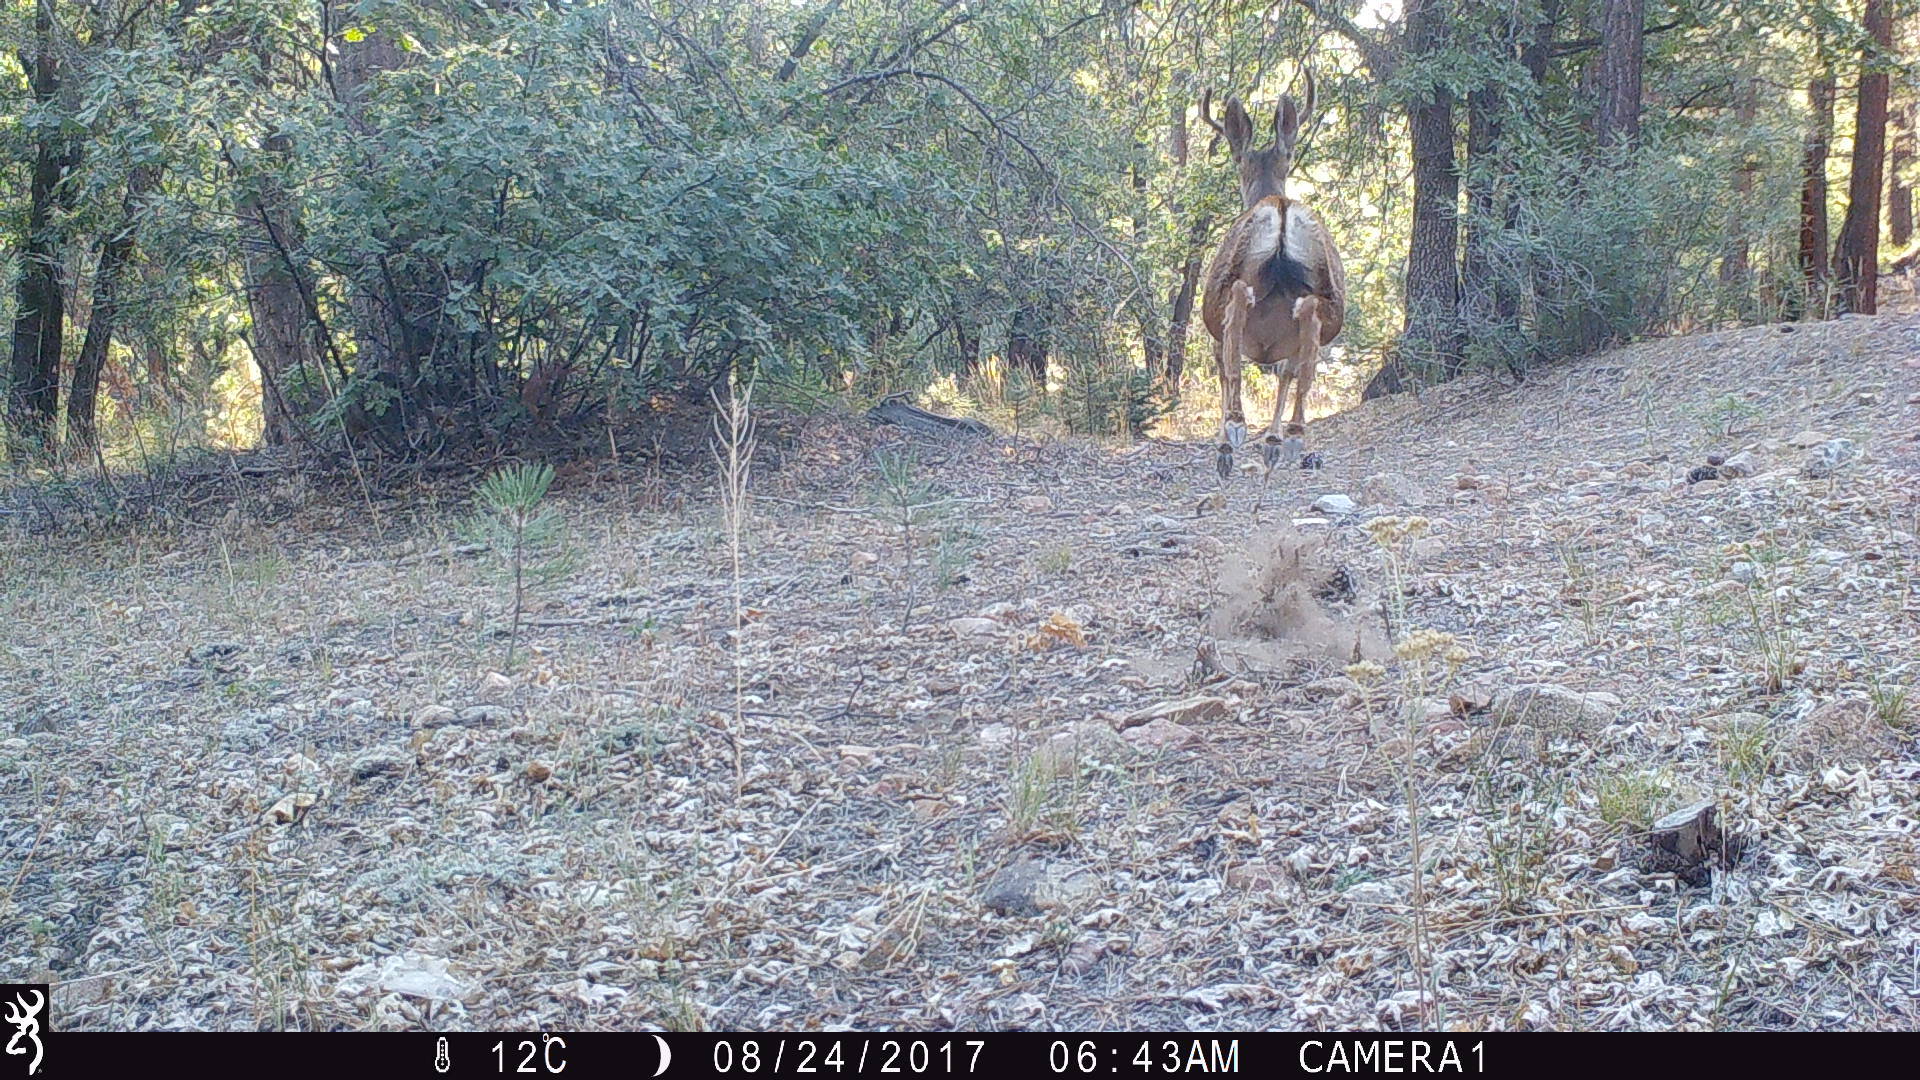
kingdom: Animalia
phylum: Chordata
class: Mammalia
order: Artiodactyla
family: Cervidae
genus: Odocoileus
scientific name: Odocoileus hemionus
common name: Mule deer
